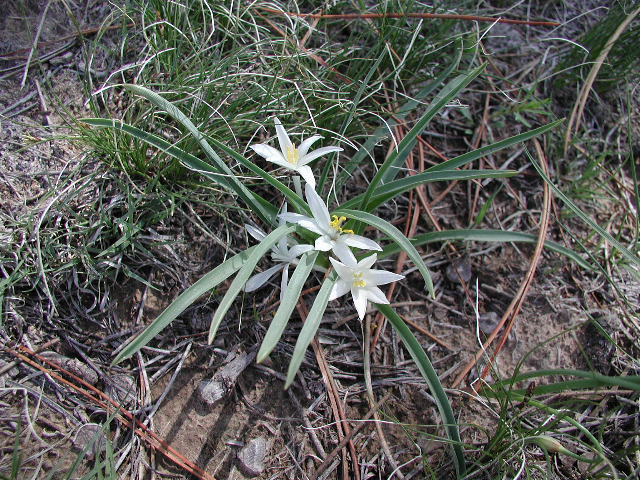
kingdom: Plantae
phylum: Tracheophyta
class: Liliopsida
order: Asparagales
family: Asparagaceae
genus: Leucocrinum
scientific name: Leucocrinum montanum
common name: Mountain-lily
